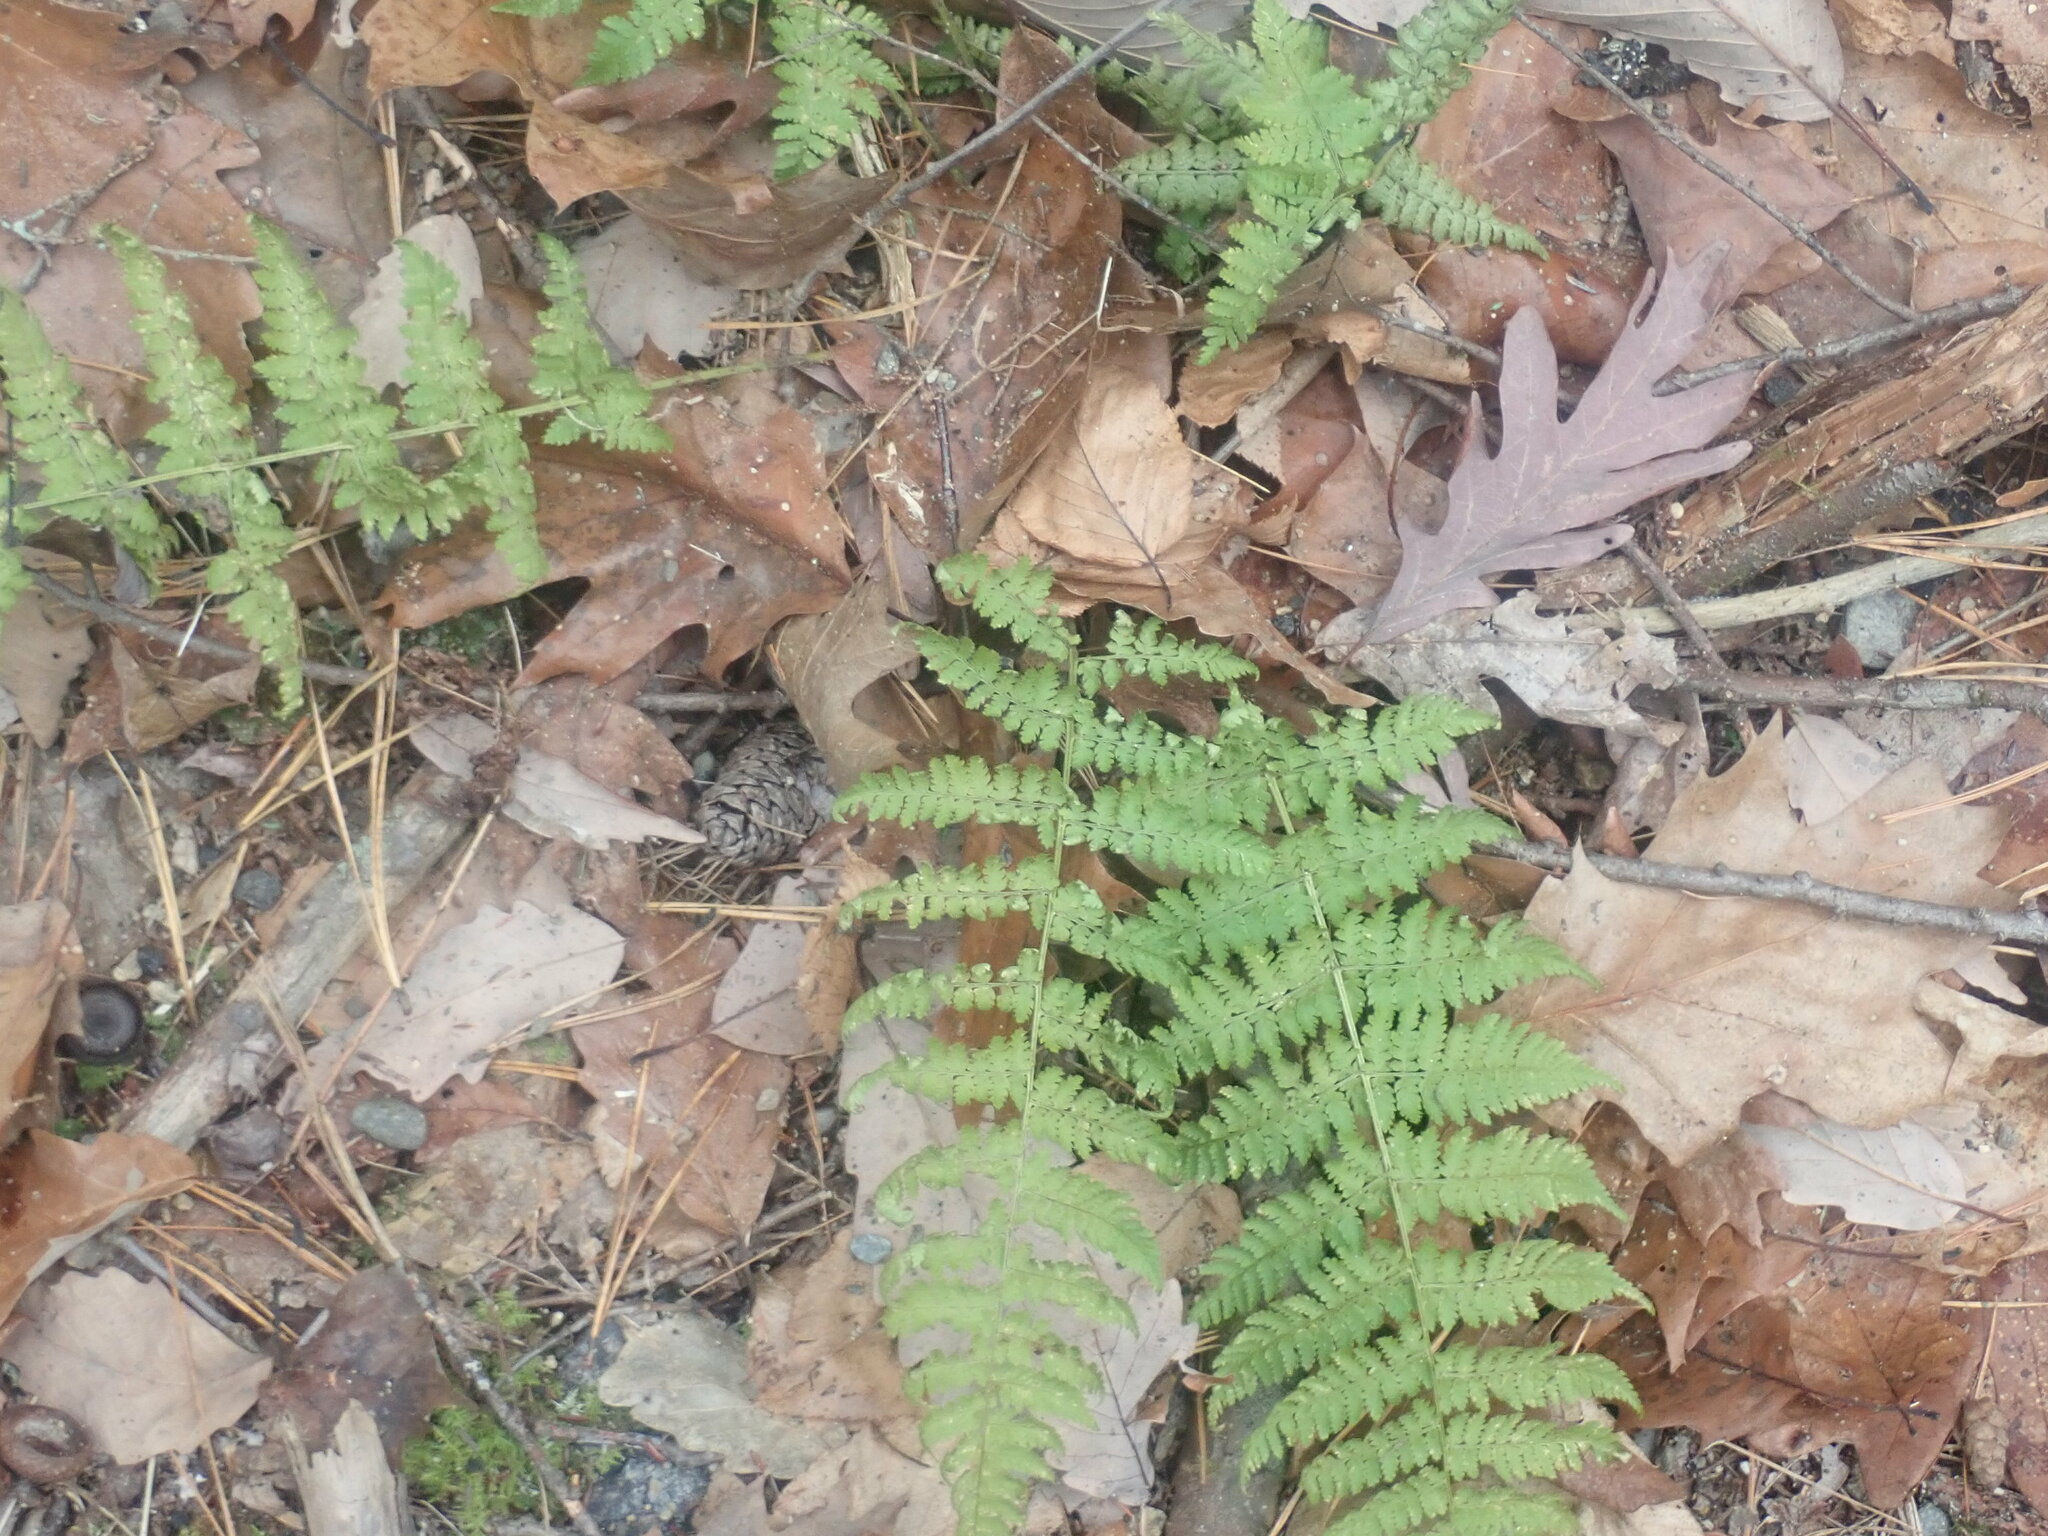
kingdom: Plantae
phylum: Tracheophyta
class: Polypodiopsida
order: Polypodiales
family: Dryopteridaceae
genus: Dryopteris
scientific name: Dryopteris intermedia
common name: Evergreen wood fern
